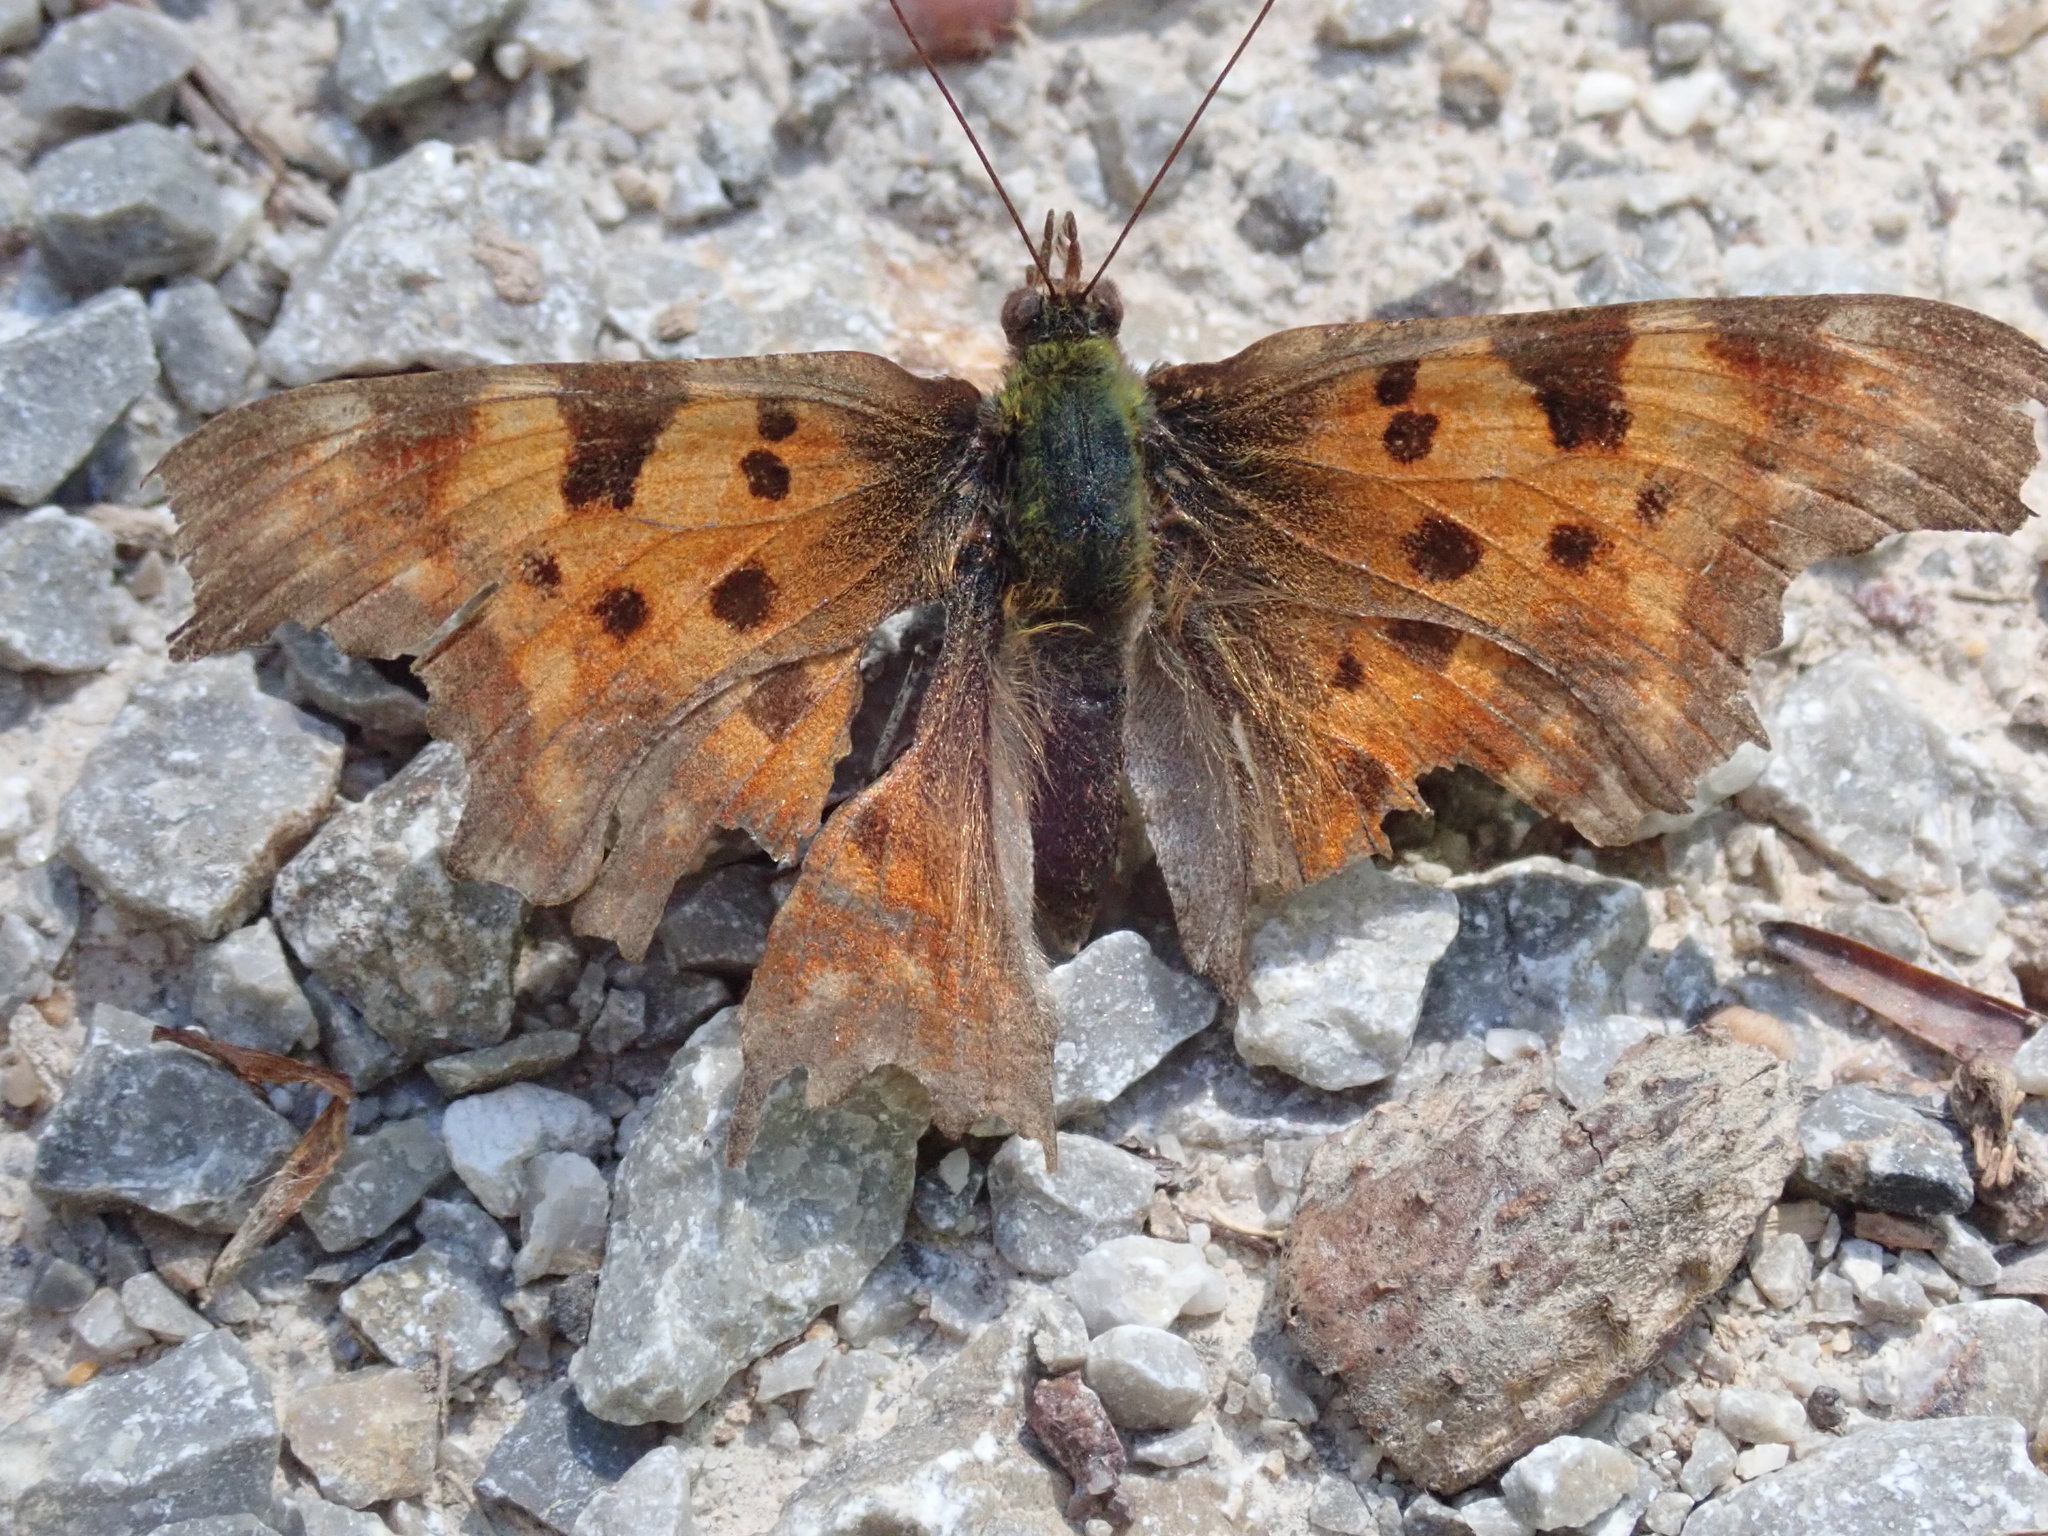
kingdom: Animalia
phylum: Arthropoda
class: Insecta
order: Lepidoptera
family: Nymphalidae
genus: Polygonia
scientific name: Polygonia c-album
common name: Comma
